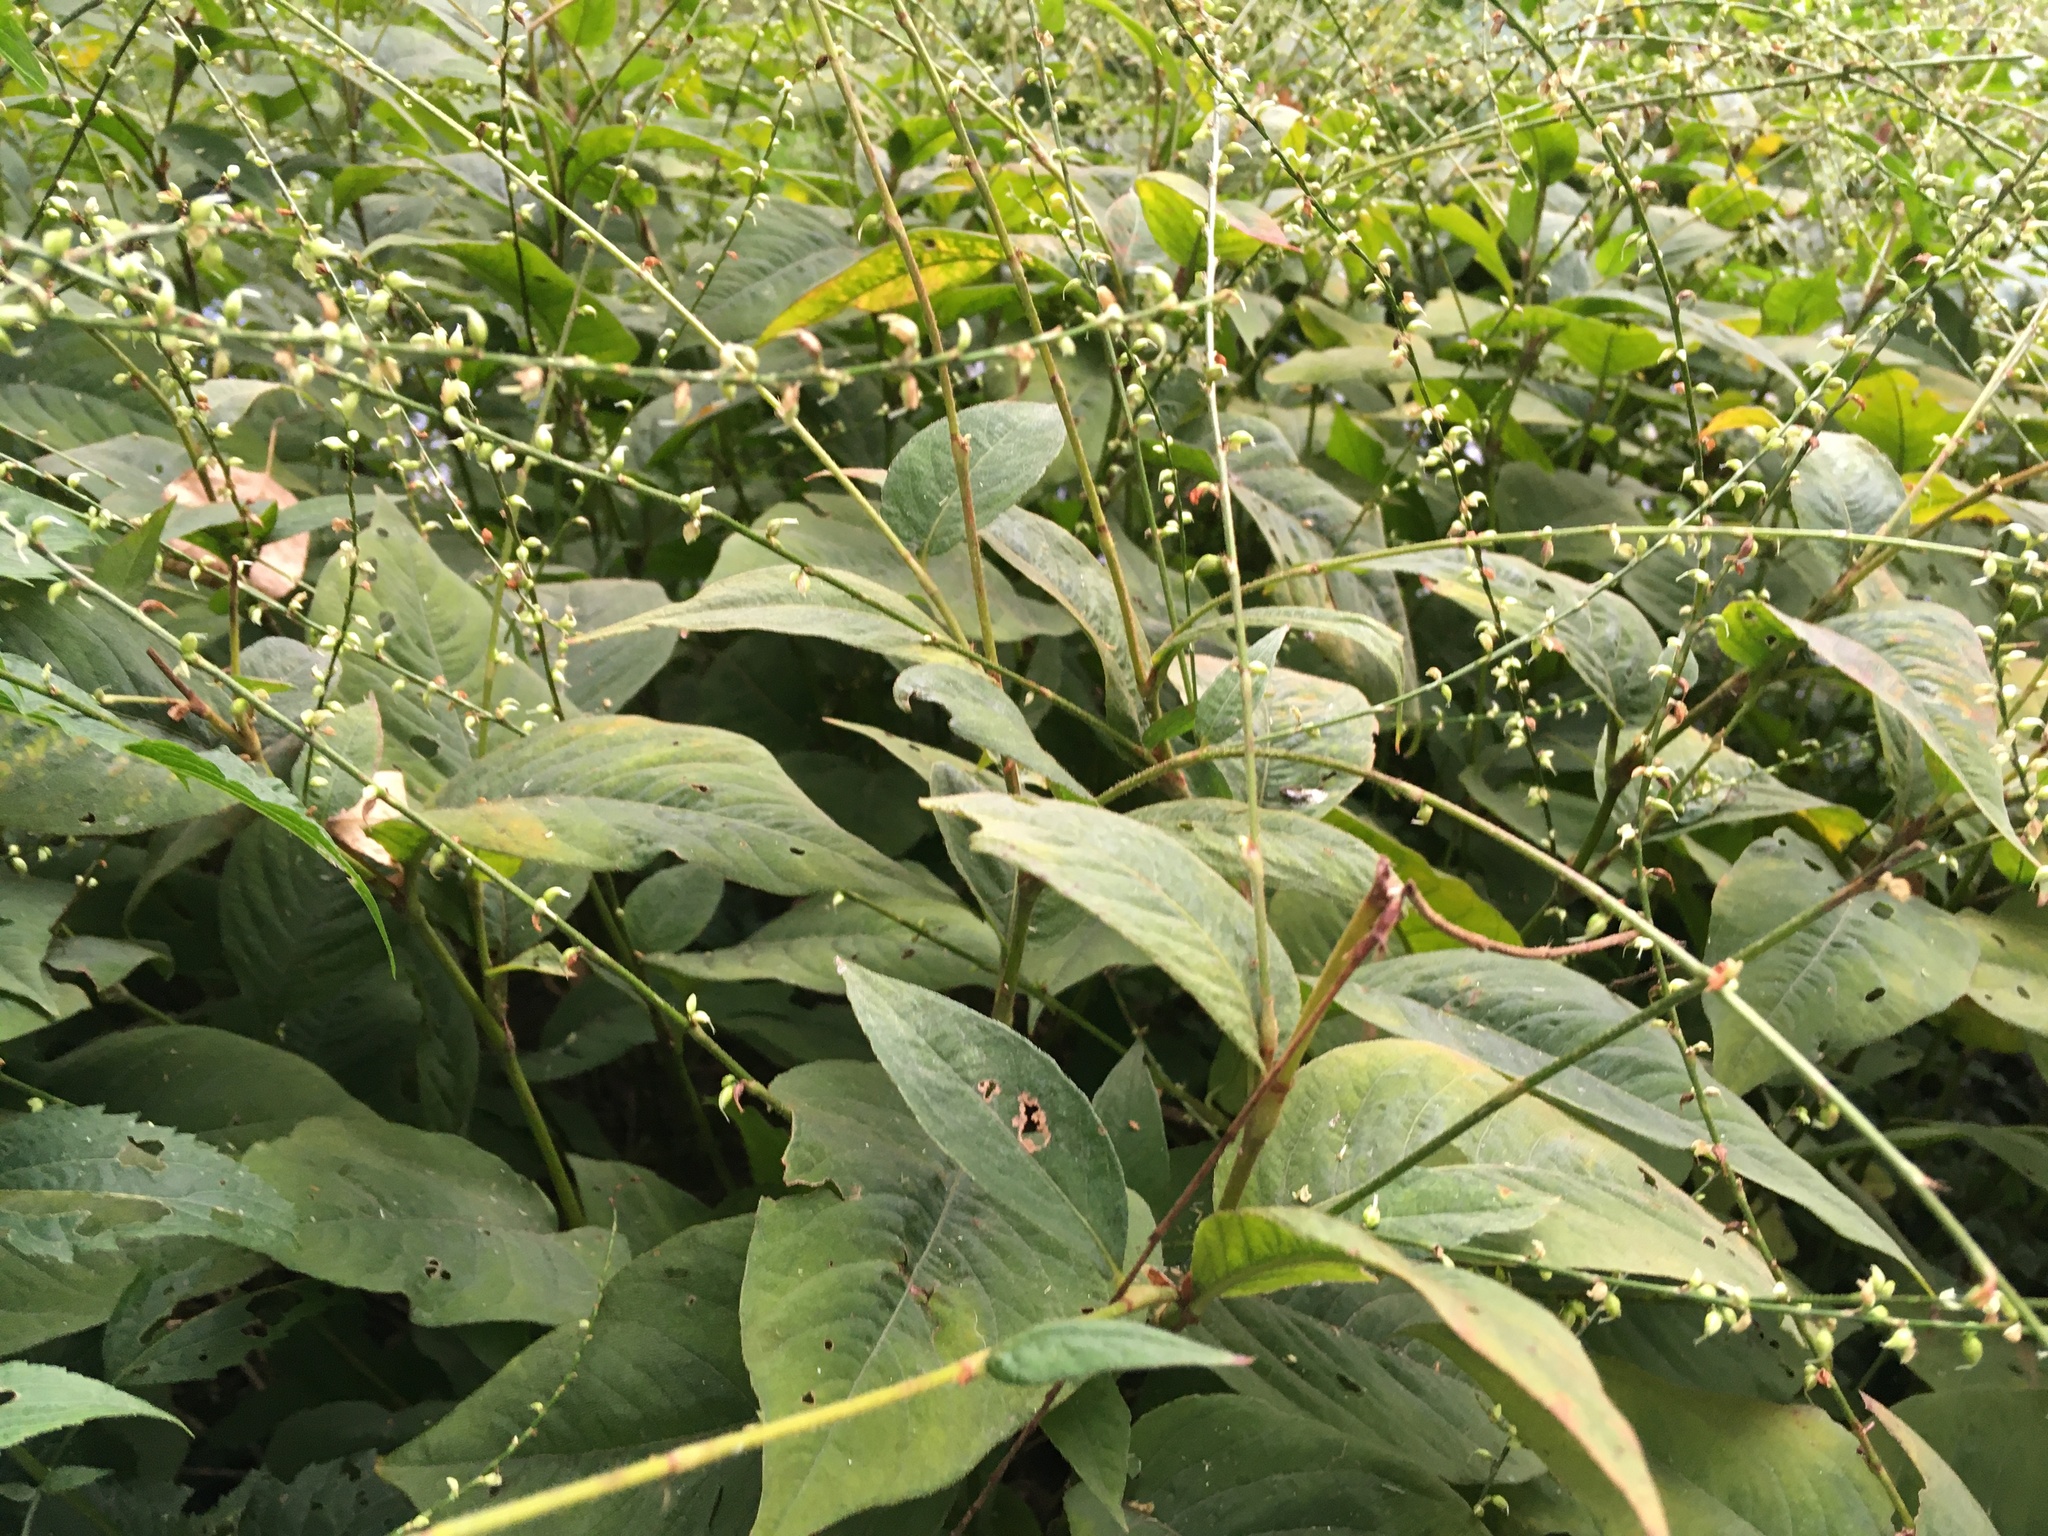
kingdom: Plantae
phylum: Tracheophyta
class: Magnoliopsida
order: Caryophyllales
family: Polygonaceae
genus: Persicaria
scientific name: Persicaria virginiana
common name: Jumpseed
